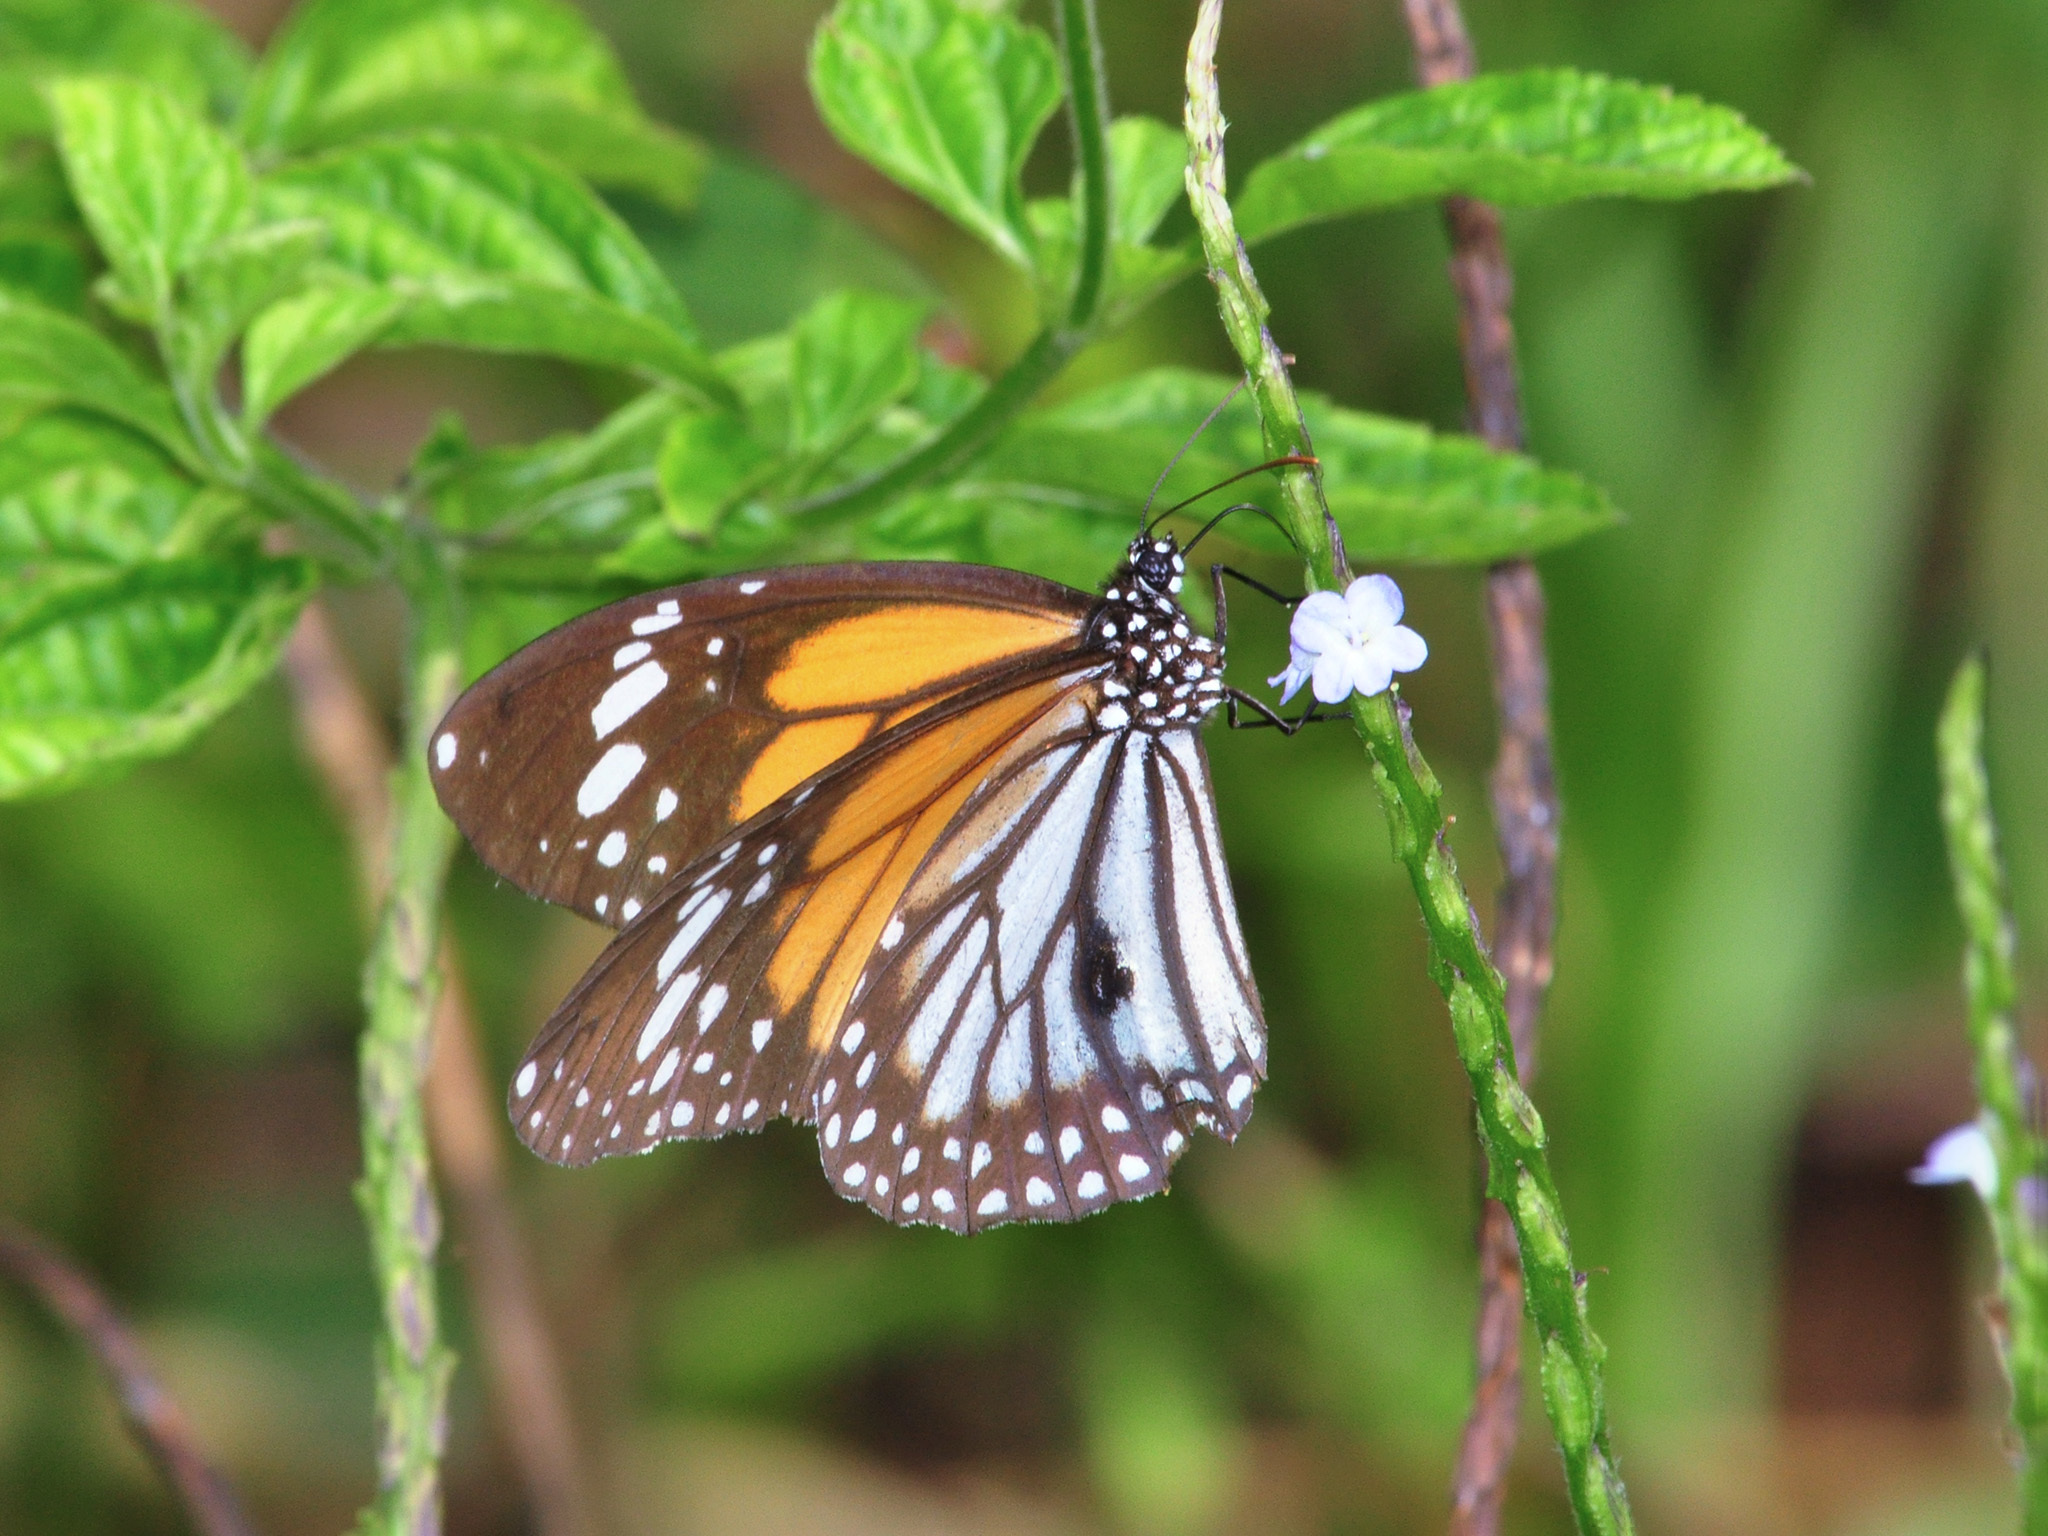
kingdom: Animalia
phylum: Arthropoda
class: Insecta
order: Lepidoptera
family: Nymphalidae
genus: Danaus
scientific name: Danaus melanippus
